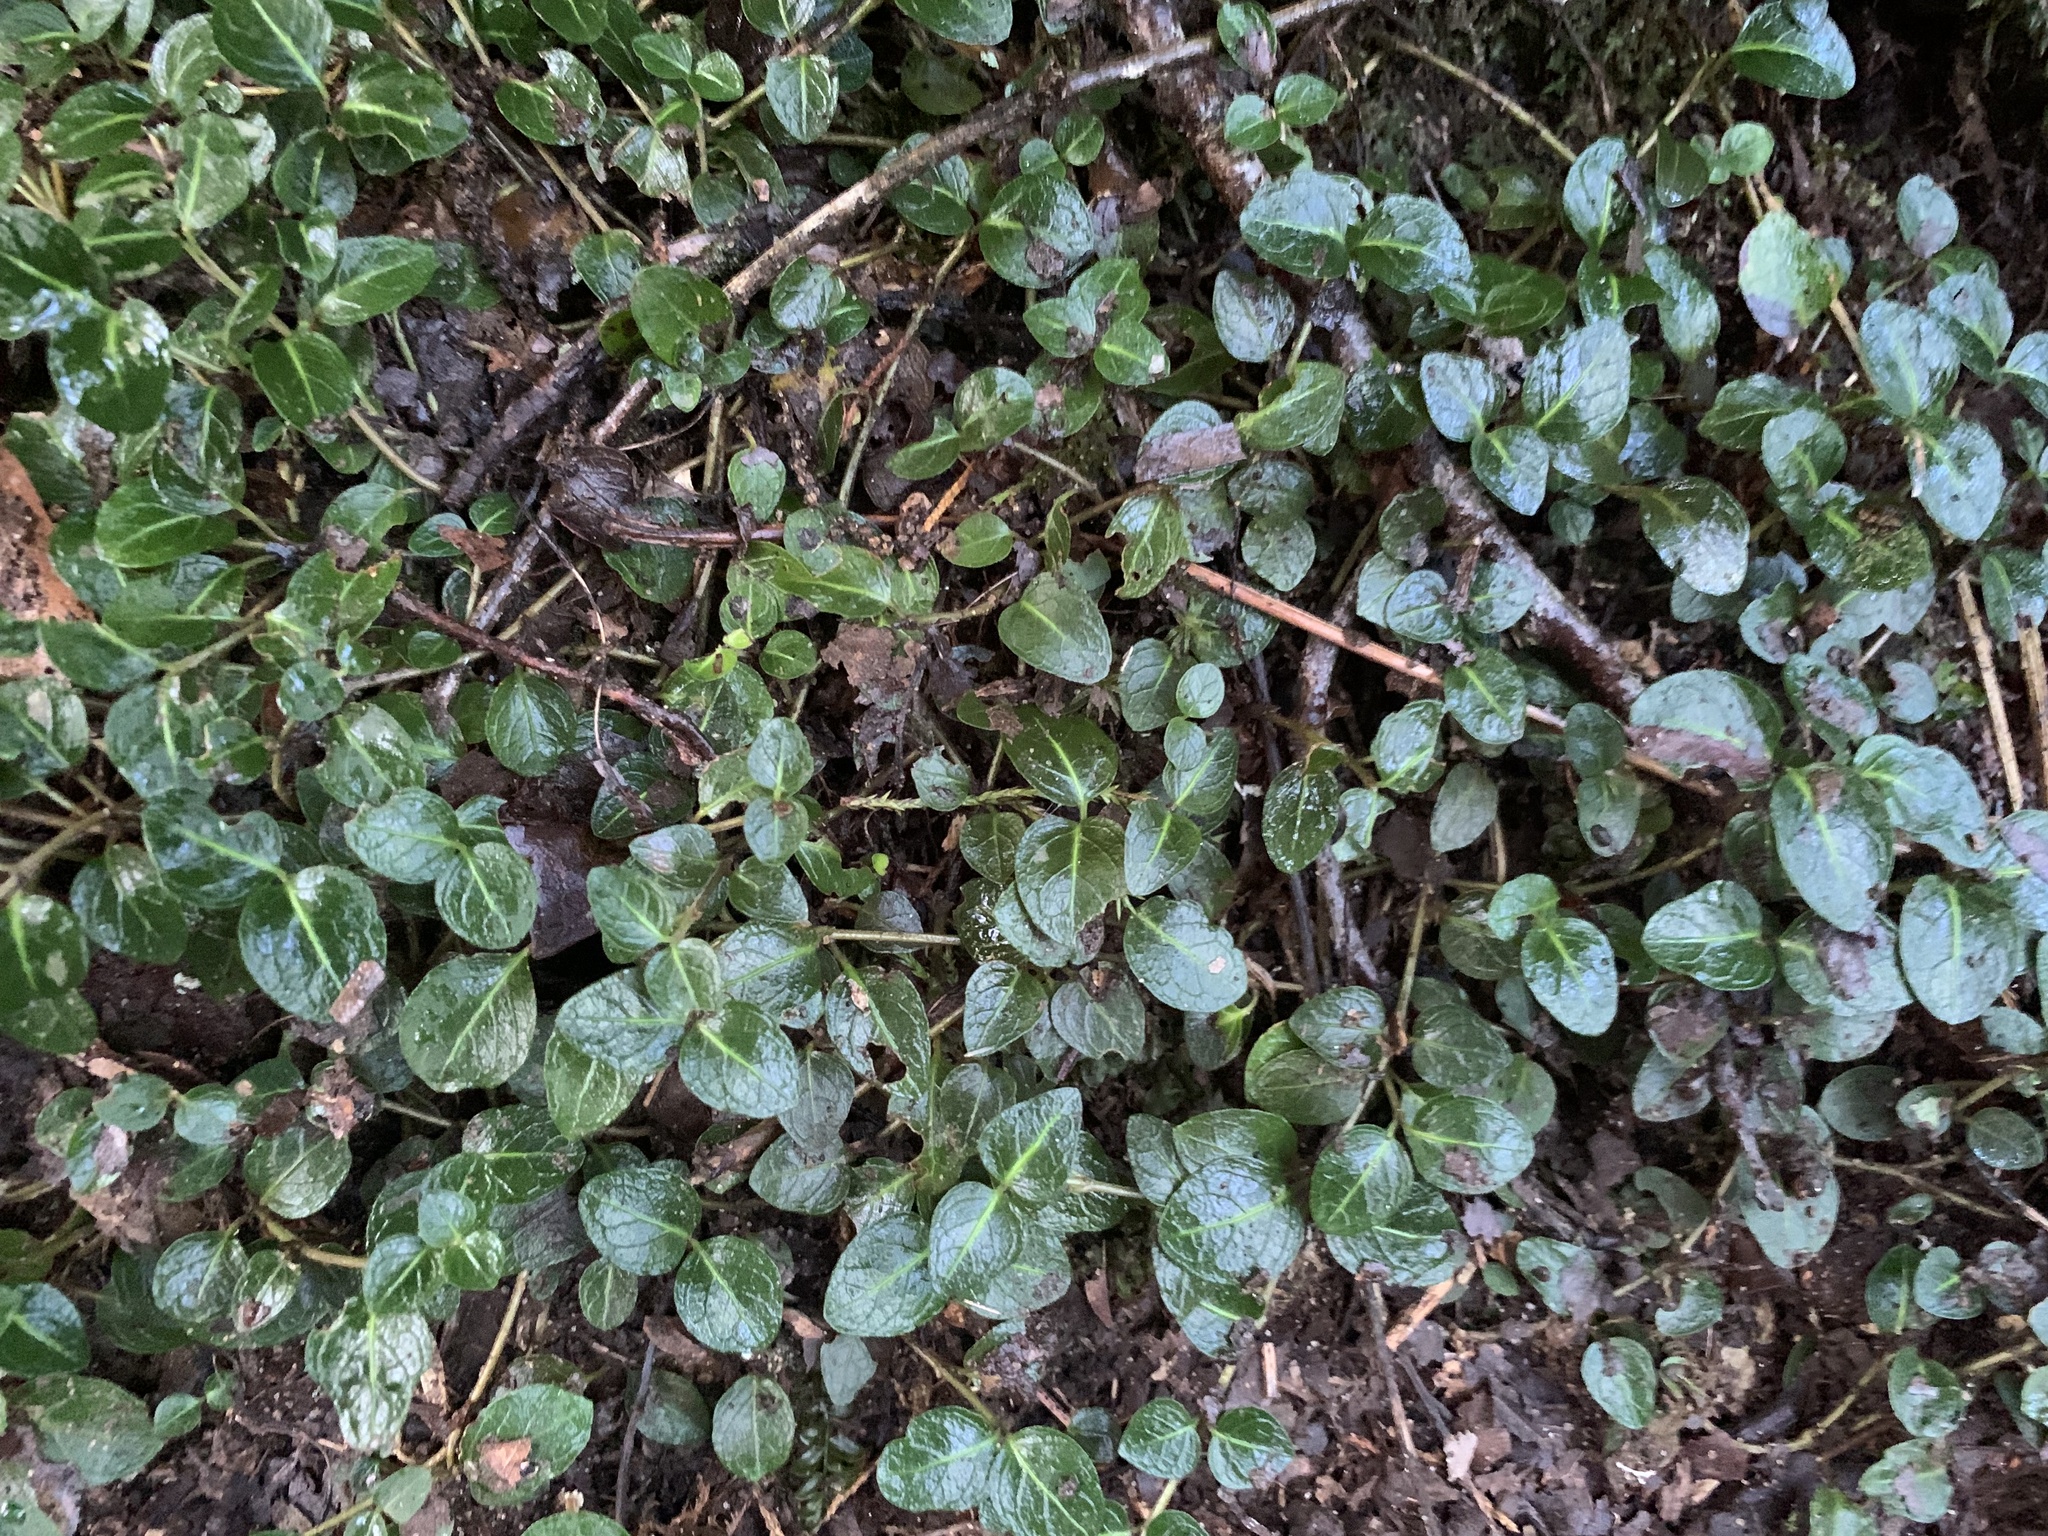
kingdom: Plantae
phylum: Tracheophyta
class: Magnoliopsida
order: Gentianales
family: Rubiaceae
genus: Mitchella
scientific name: Mitchella repens
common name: Partridge-berry
